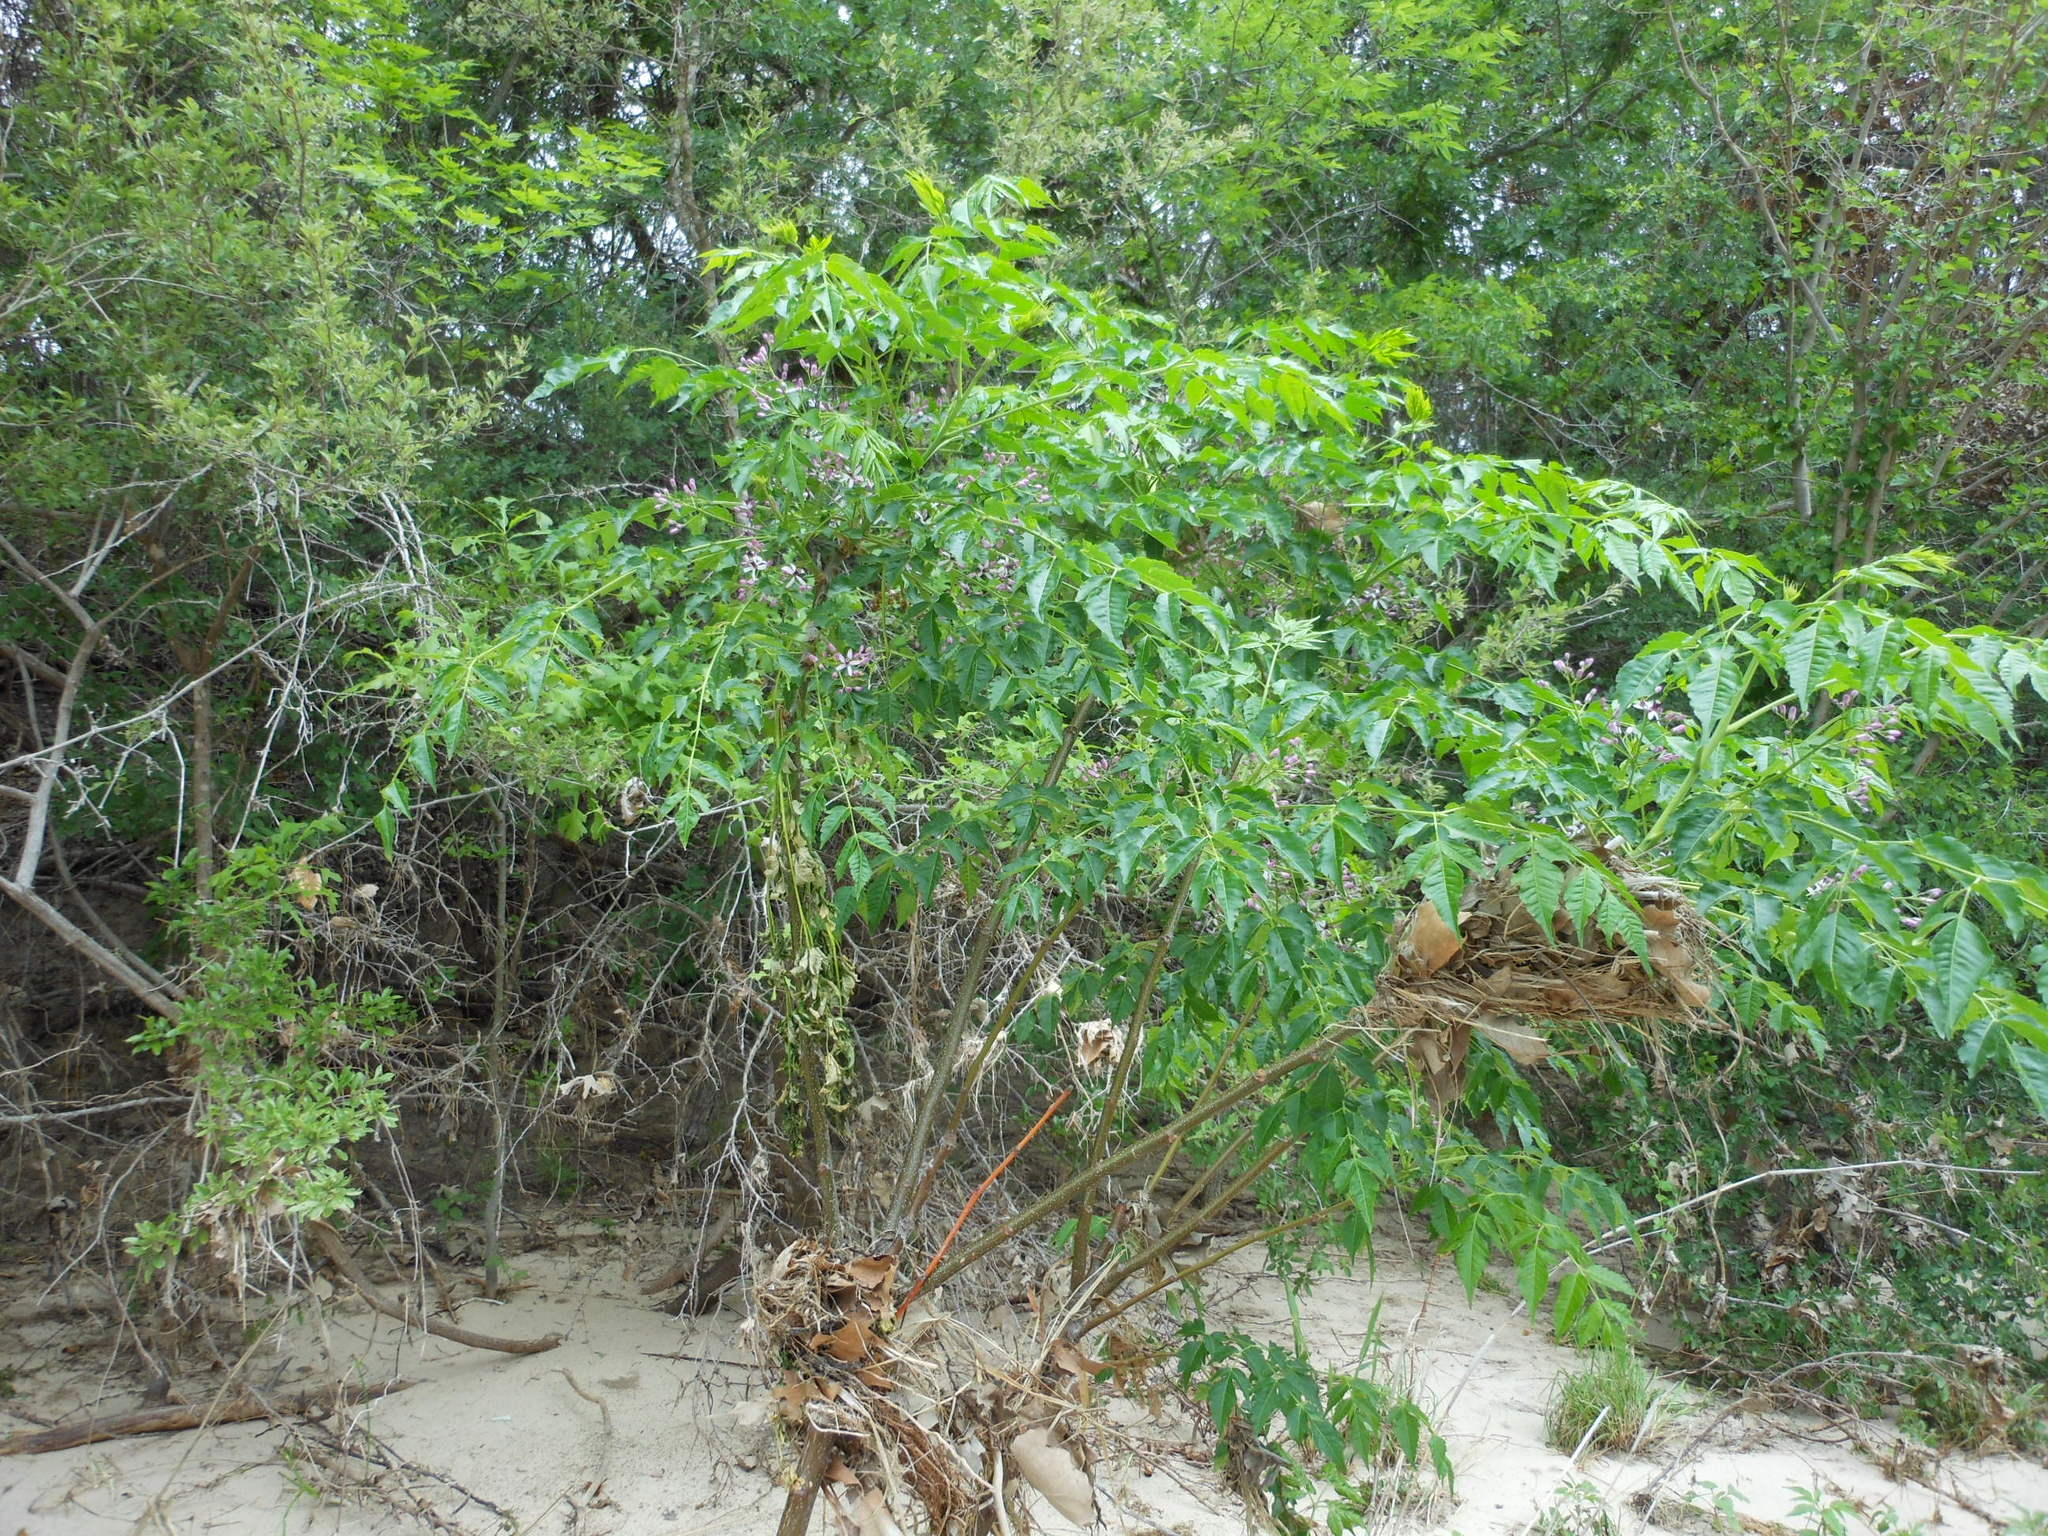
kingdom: Plantae
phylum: Tracheophyta
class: Magnoliopsida
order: Sapindales
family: Meliaceae
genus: Melia
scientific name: Melia azedarach
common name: Chinaberrytree
